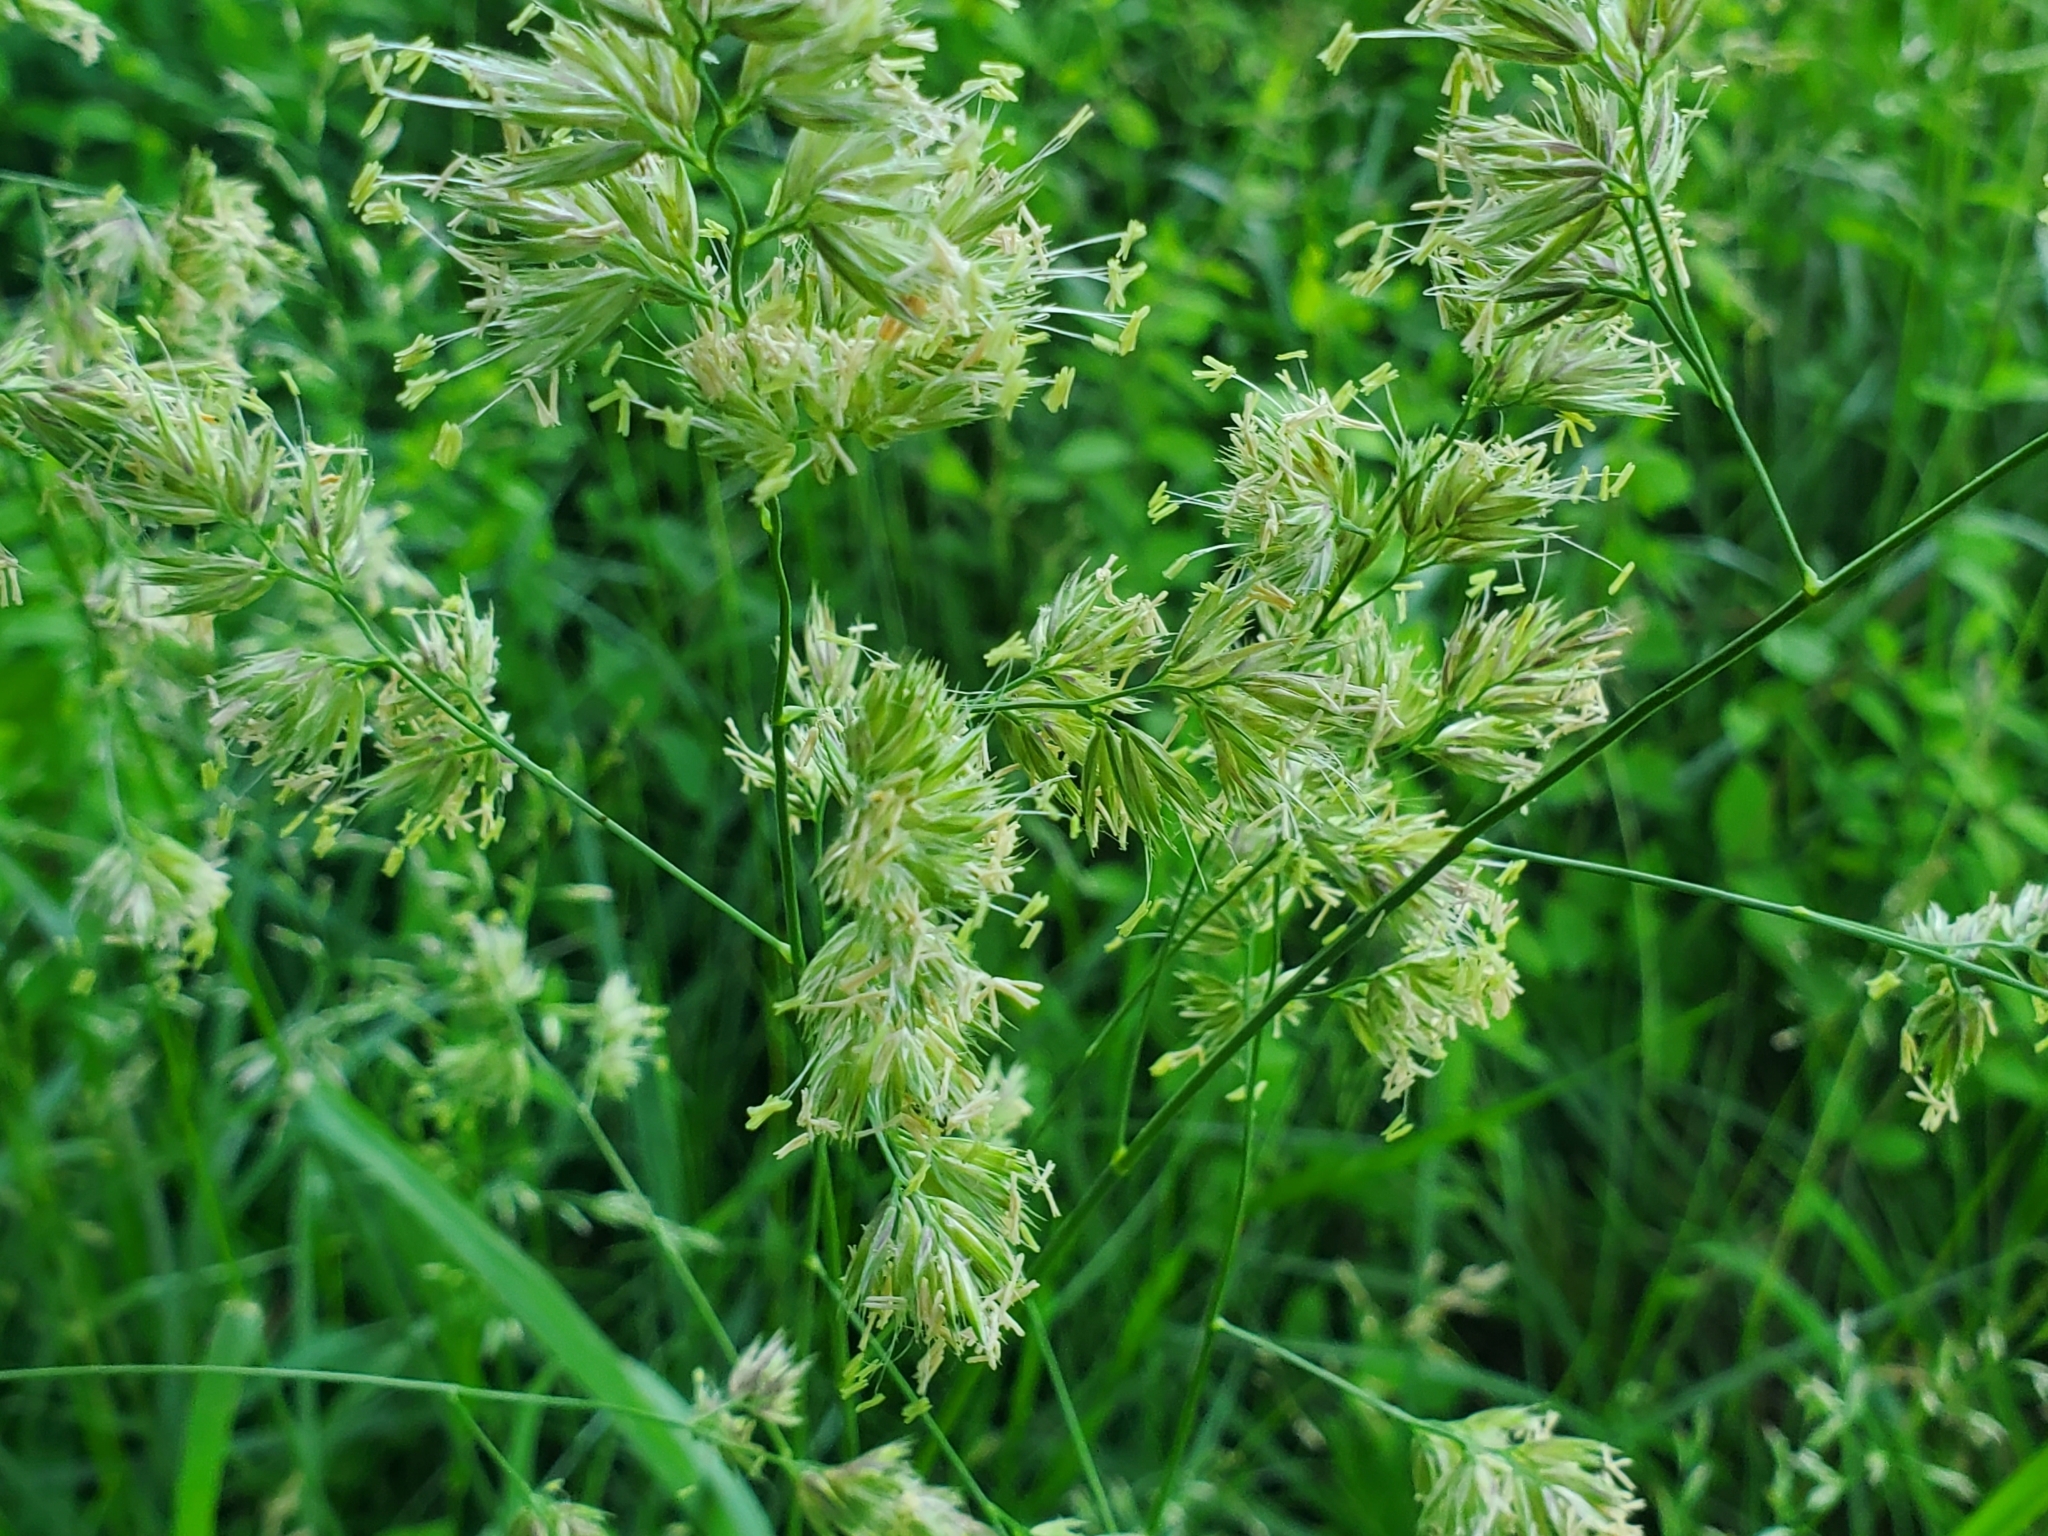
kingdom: Plantae
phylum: Tracheophyta
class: Liliopsida
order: Poales
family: Poaceae
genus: Dactylis
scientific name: Dactylis glomerata
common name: Orchardgrass
